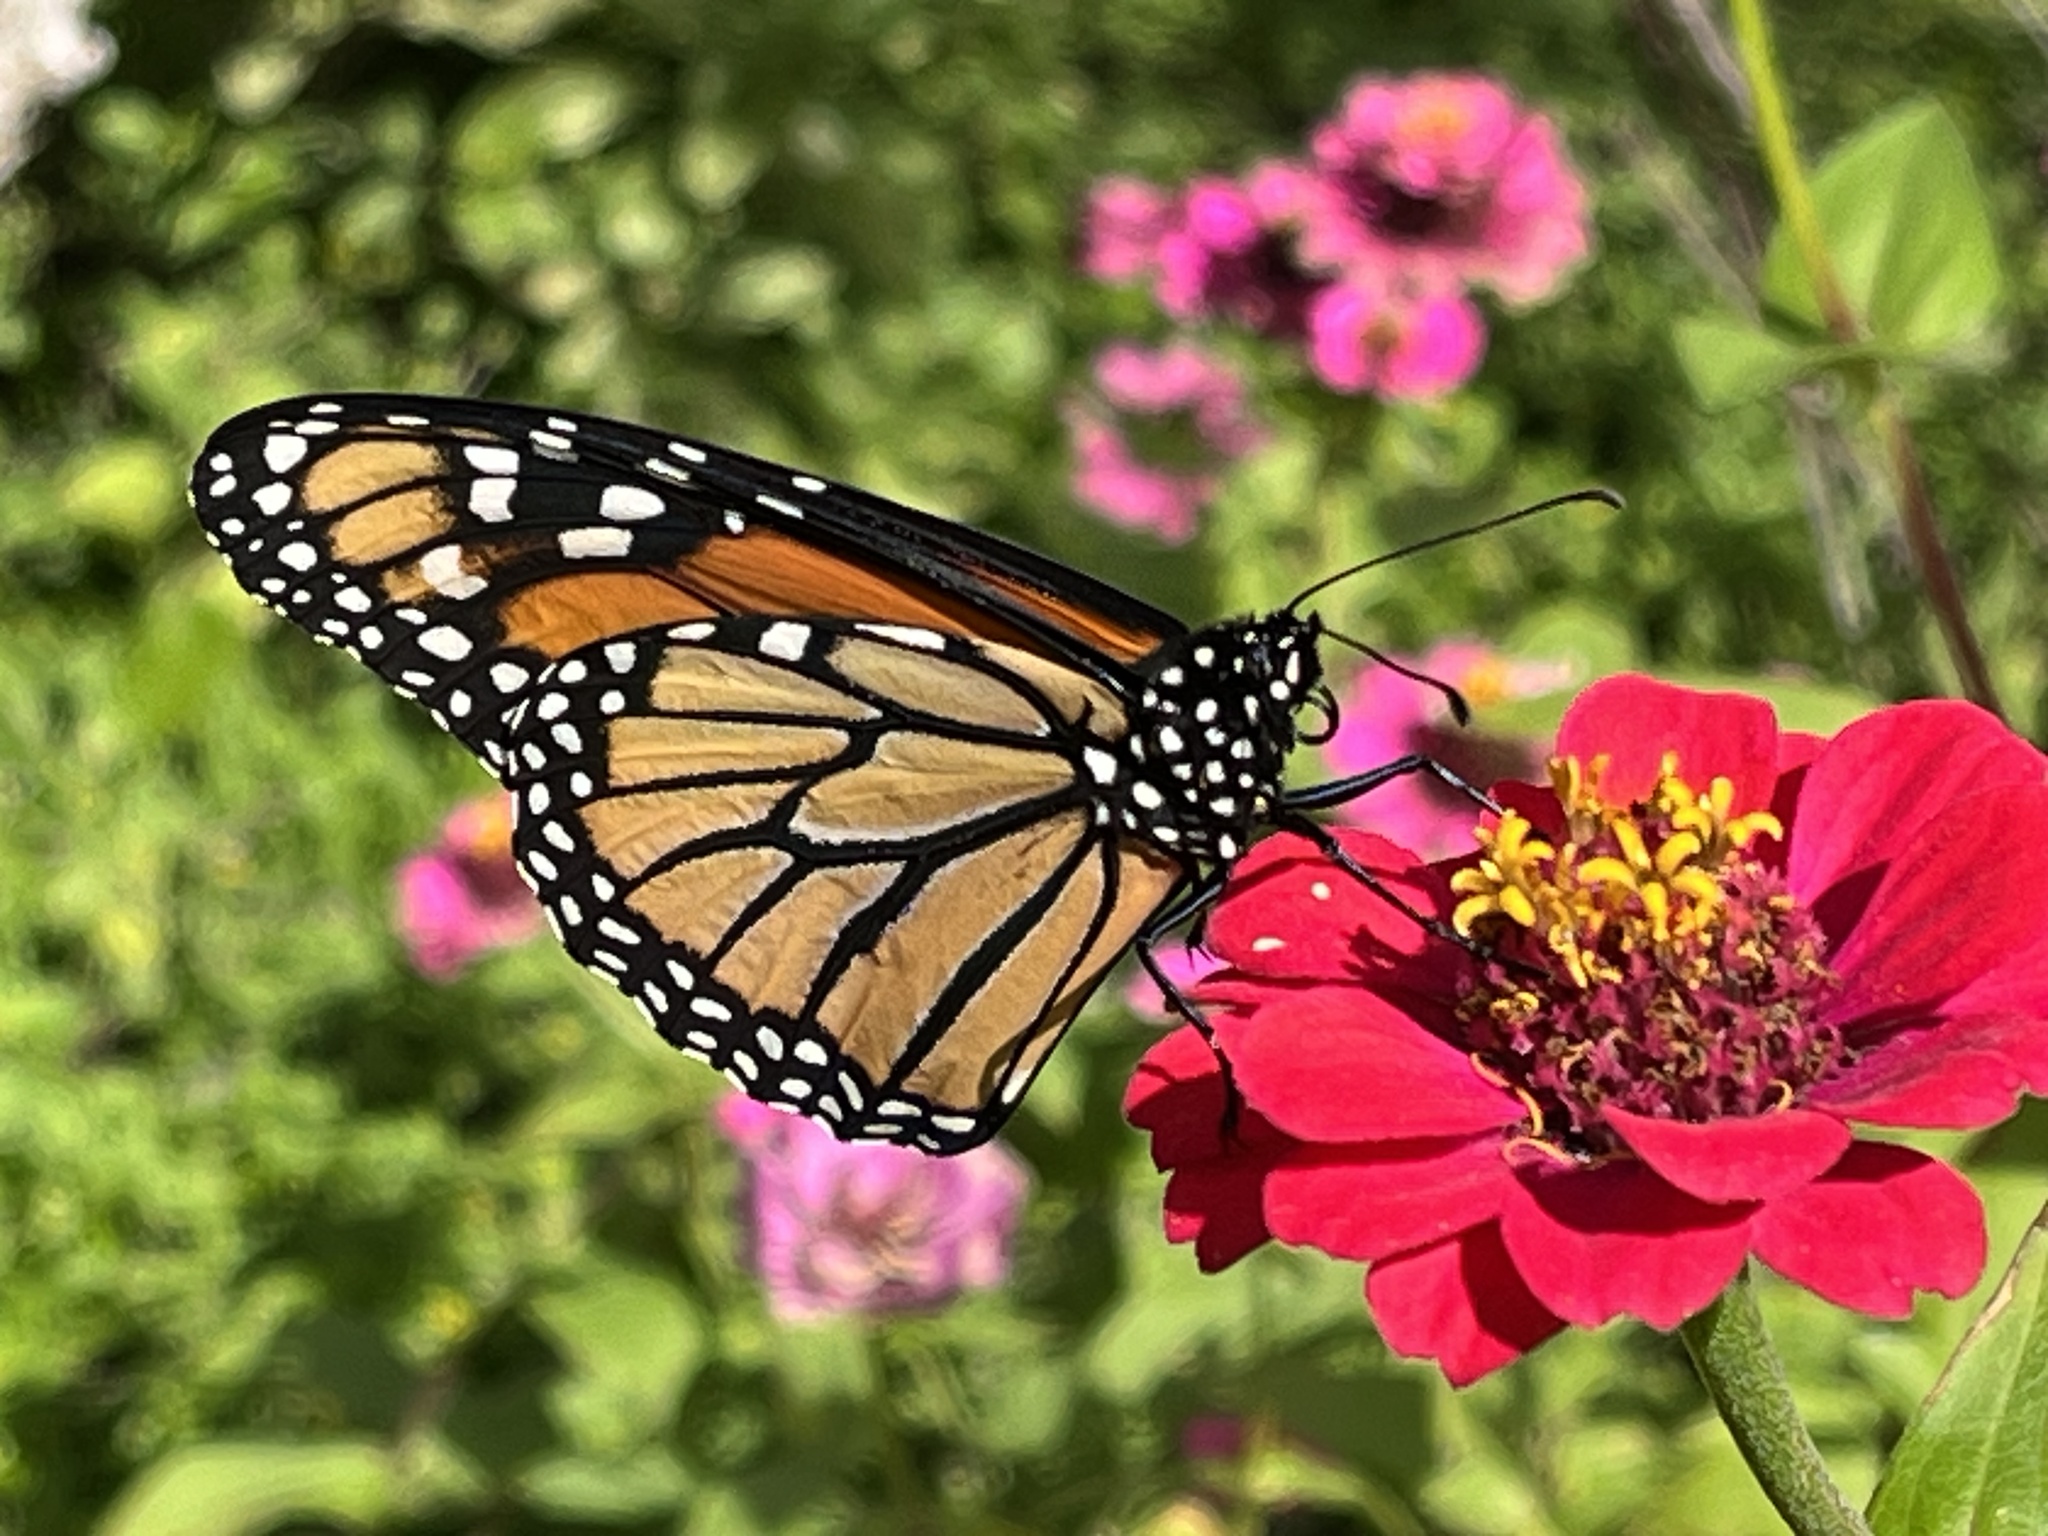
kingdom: Animalia
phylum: Arthropoda
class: Insecta
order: Lepidoptera
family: Nymphalidae
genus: Danaus
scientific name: Danaus plexippus
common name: Monarch
